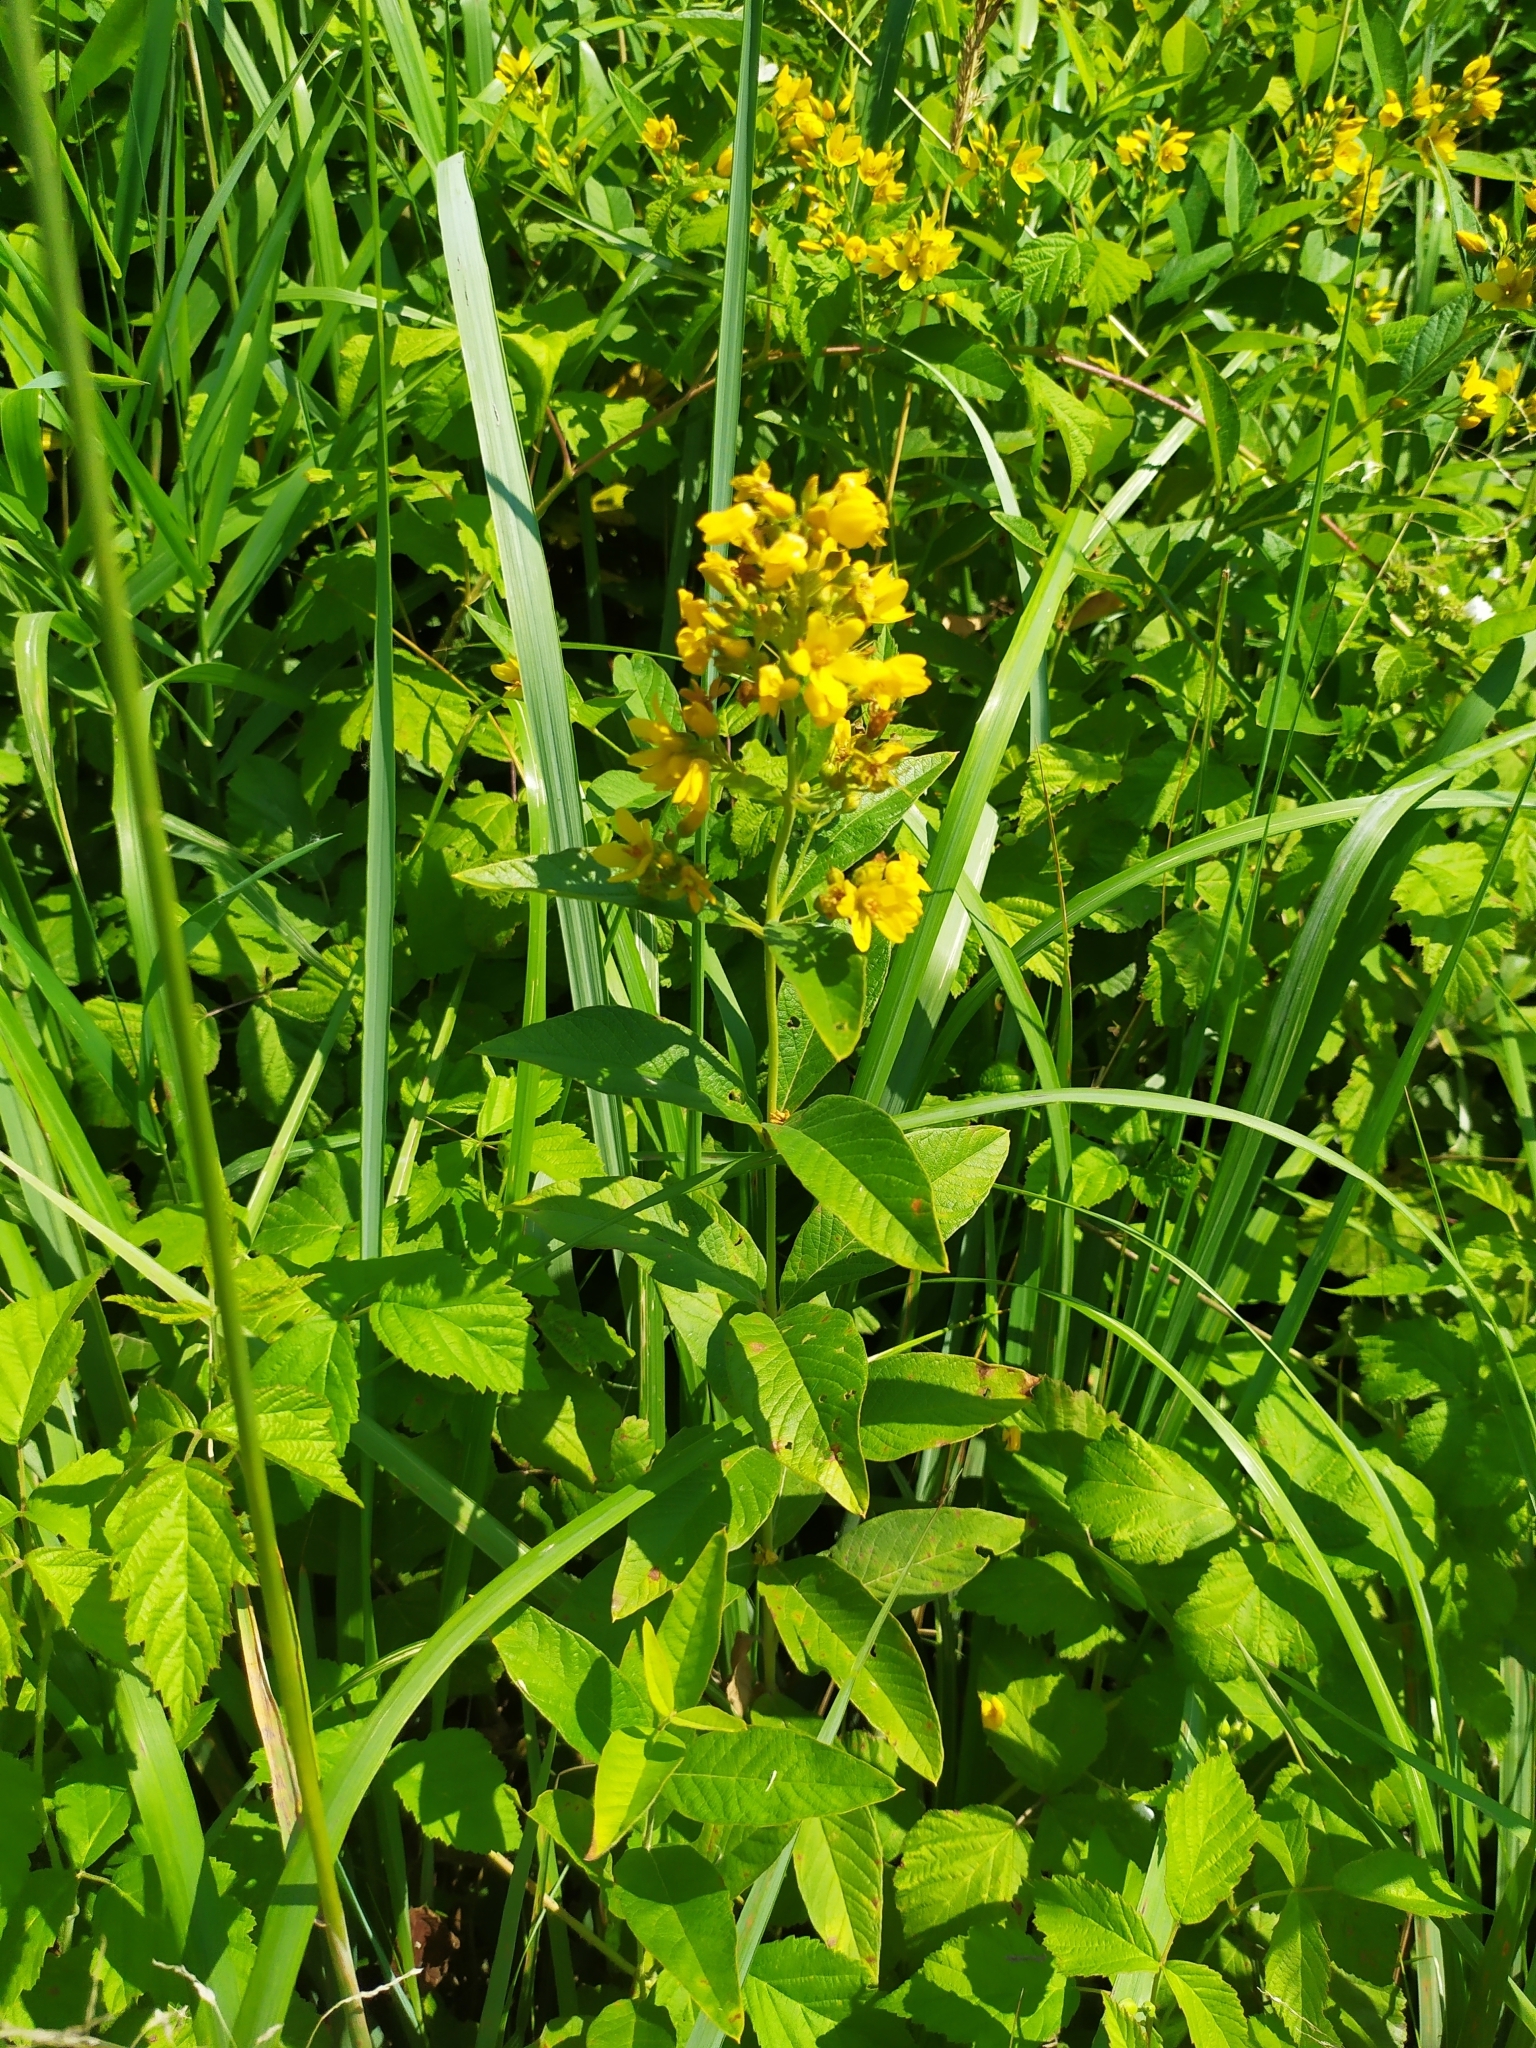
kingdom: Plantae
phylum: Tracheophyta
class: Magnoliopsida
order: Ericales
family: Primulaceae
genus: Lysimachia
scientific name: Lysimachia vulgaris
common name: Yellow loosestrife
